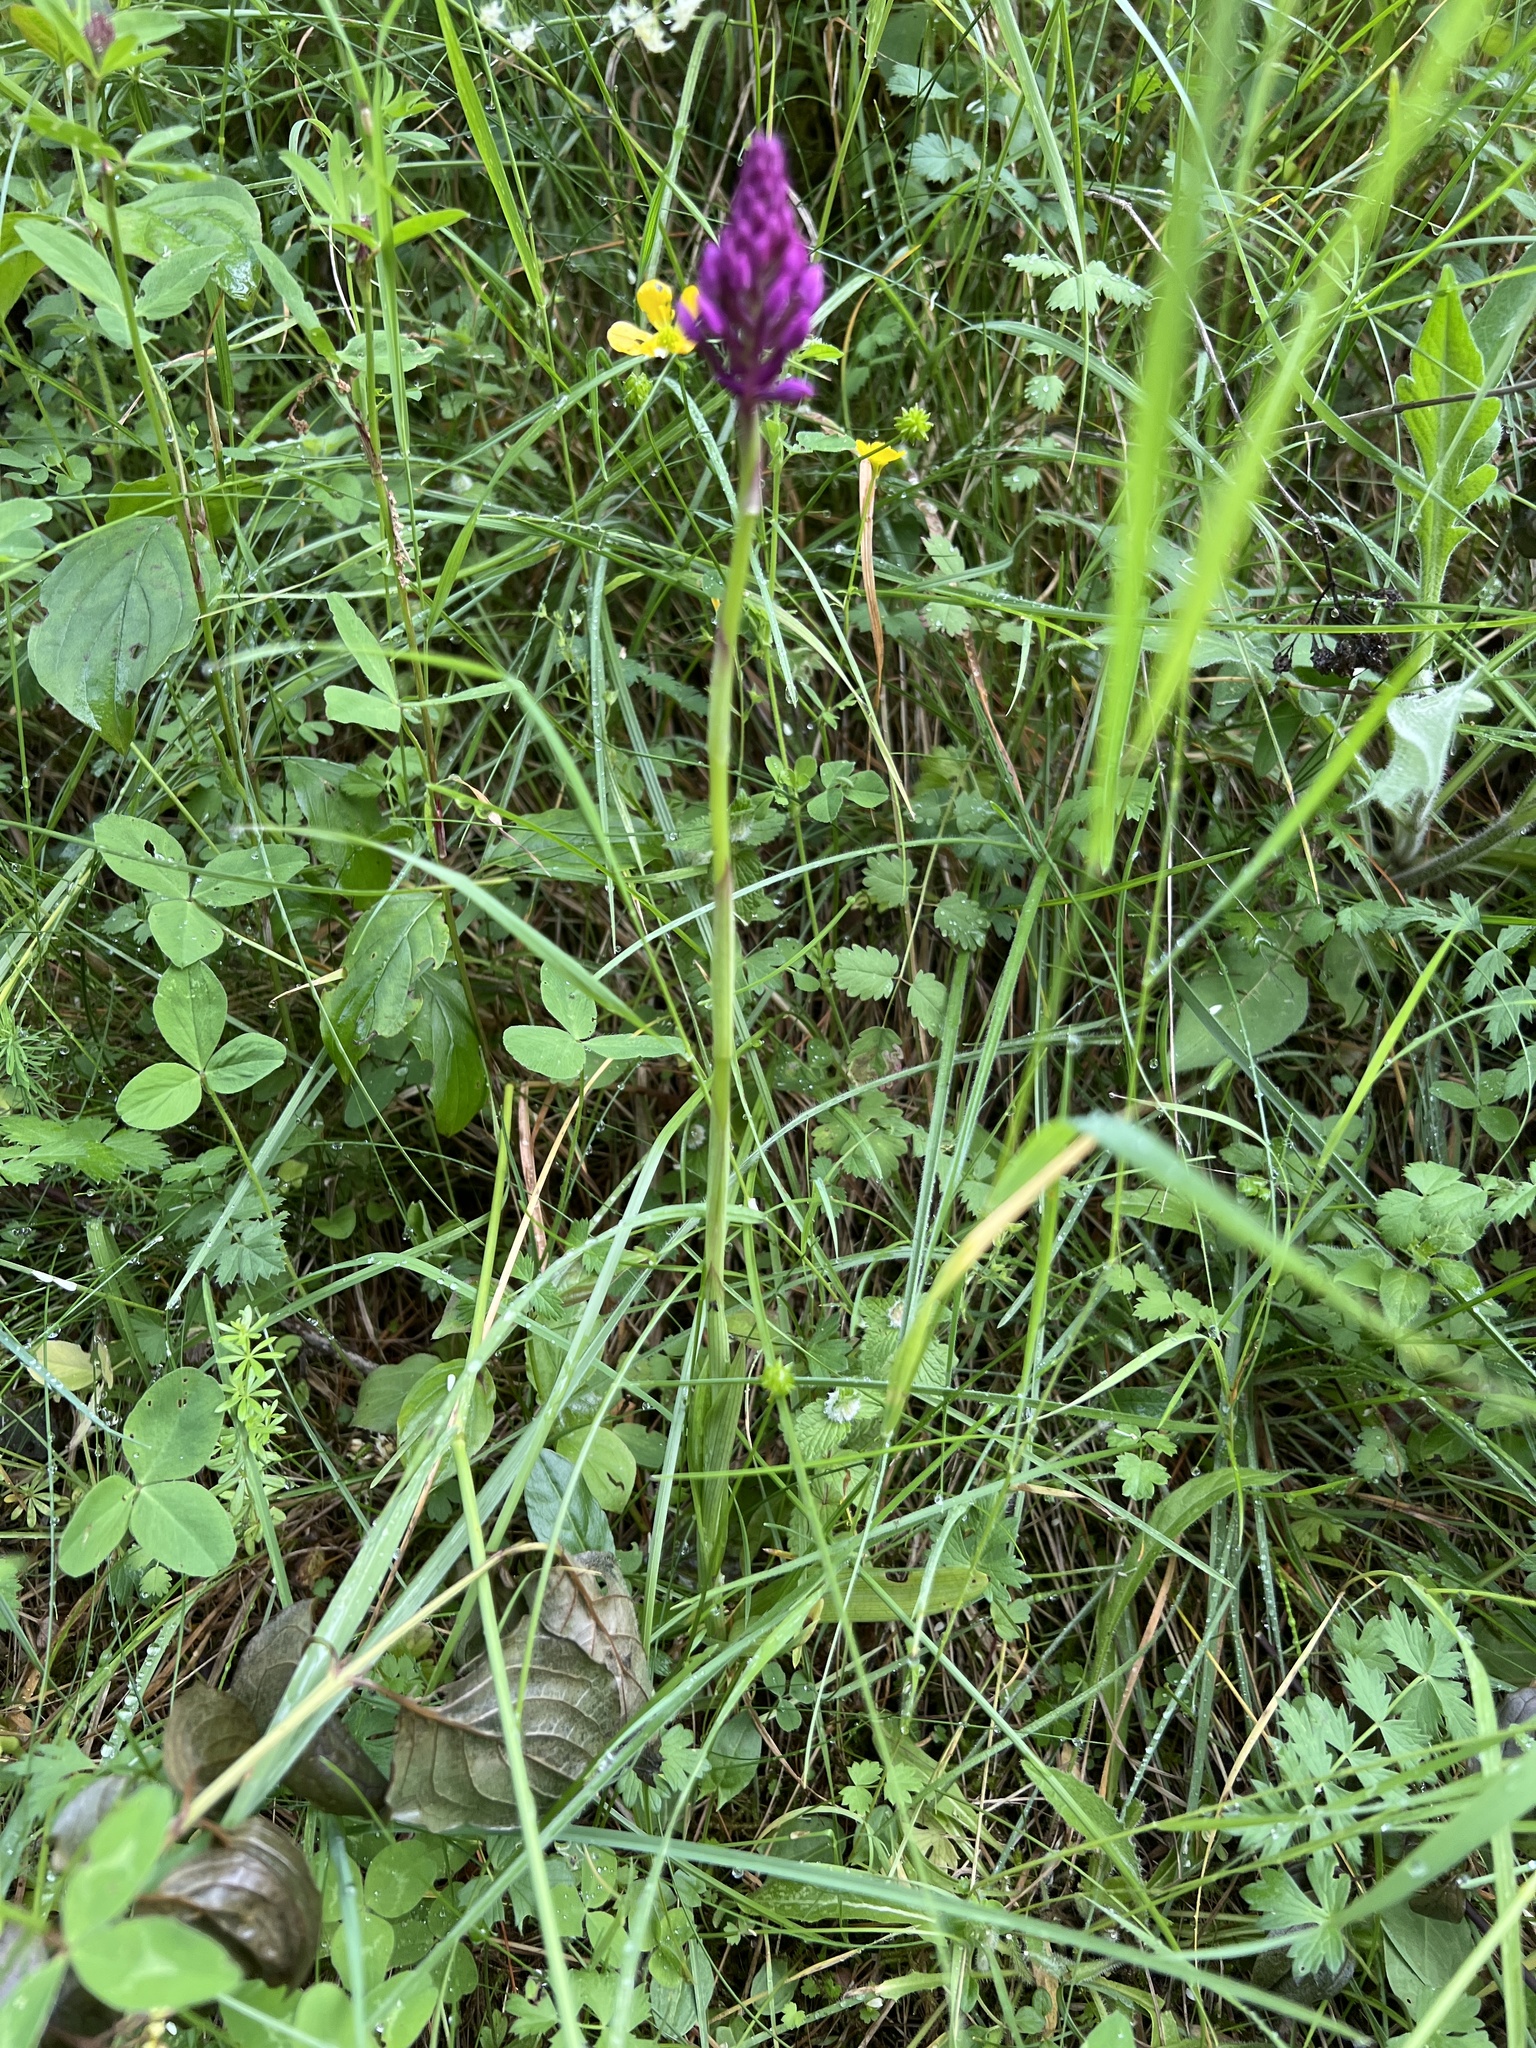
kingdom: Plantae
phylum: Tracheophyta
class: Liliopsida
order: Asparagales
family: Orchidaceae
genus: Anacamptis
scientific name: Anacamptis pyramidalis
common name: Pyramidal orchid
